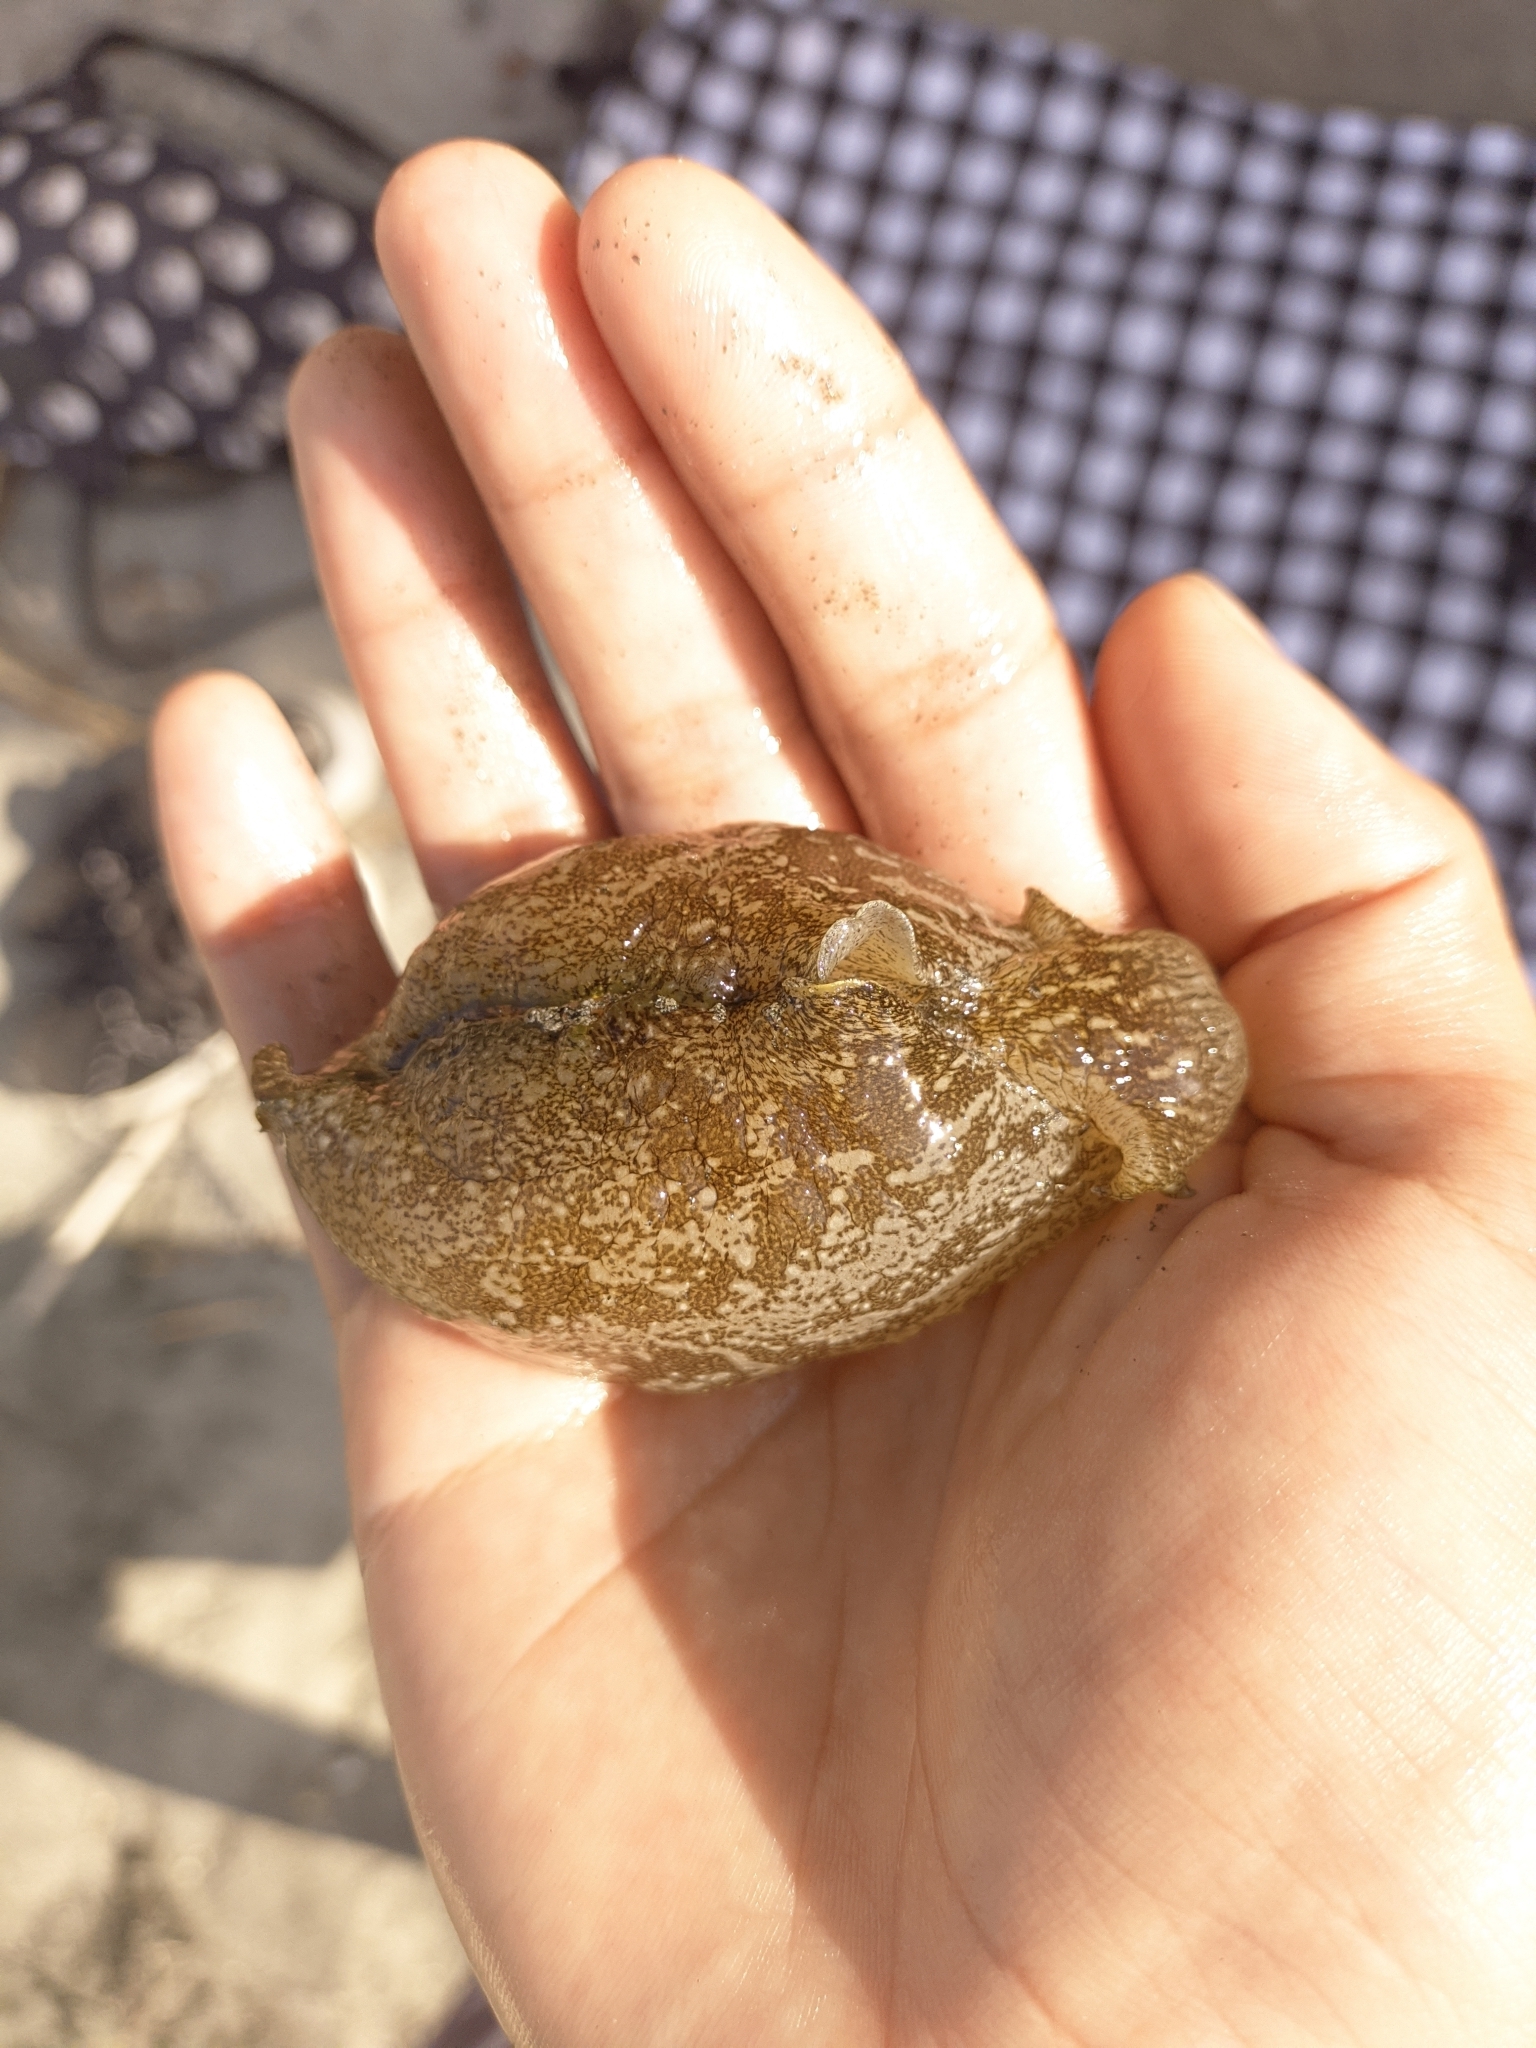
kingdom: Animalia
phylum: Mollusca
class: Gastropoda
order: Aplysiida
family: Aplysiidae
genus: Aplysia
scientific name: Aplysia brasiliana
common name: Mottled seahare
